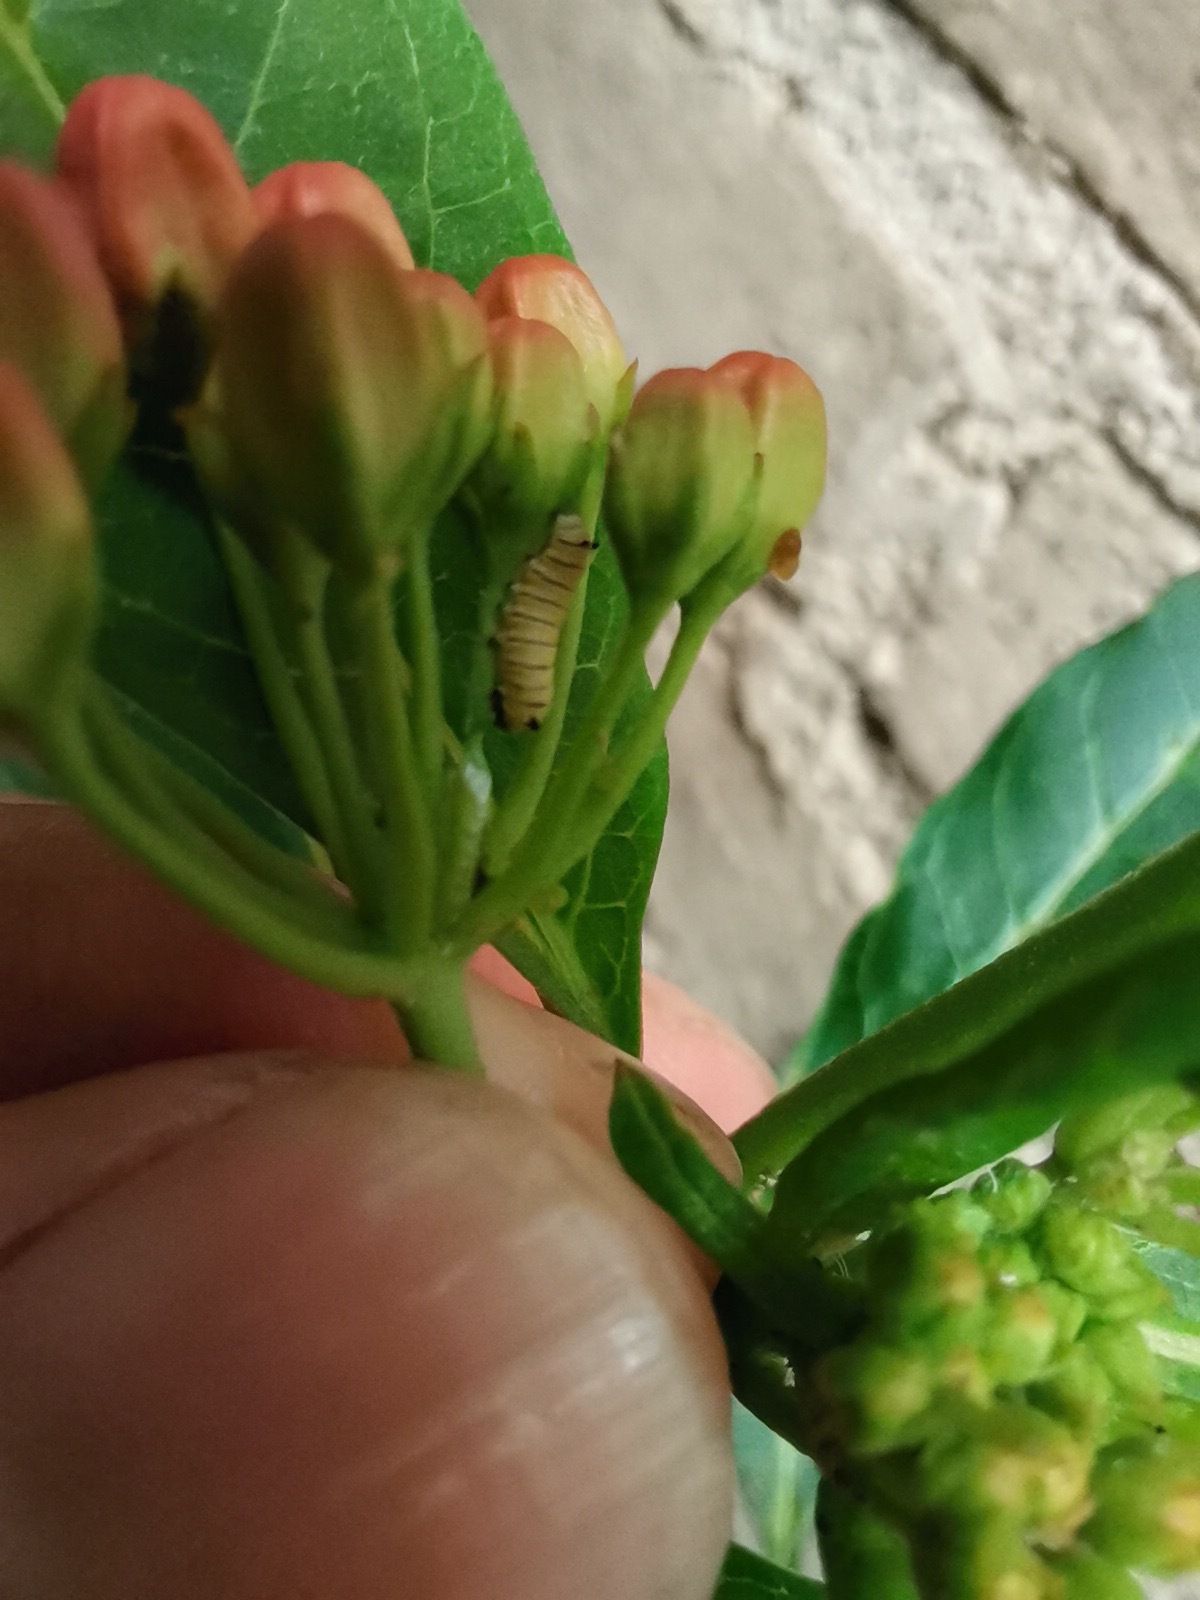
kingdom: Animalia
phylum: Arthropoda
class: Insecta
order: Lepidoptera
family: Nymphalidae
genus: Danaus
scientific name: Danaus plexippus
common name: Monarch
